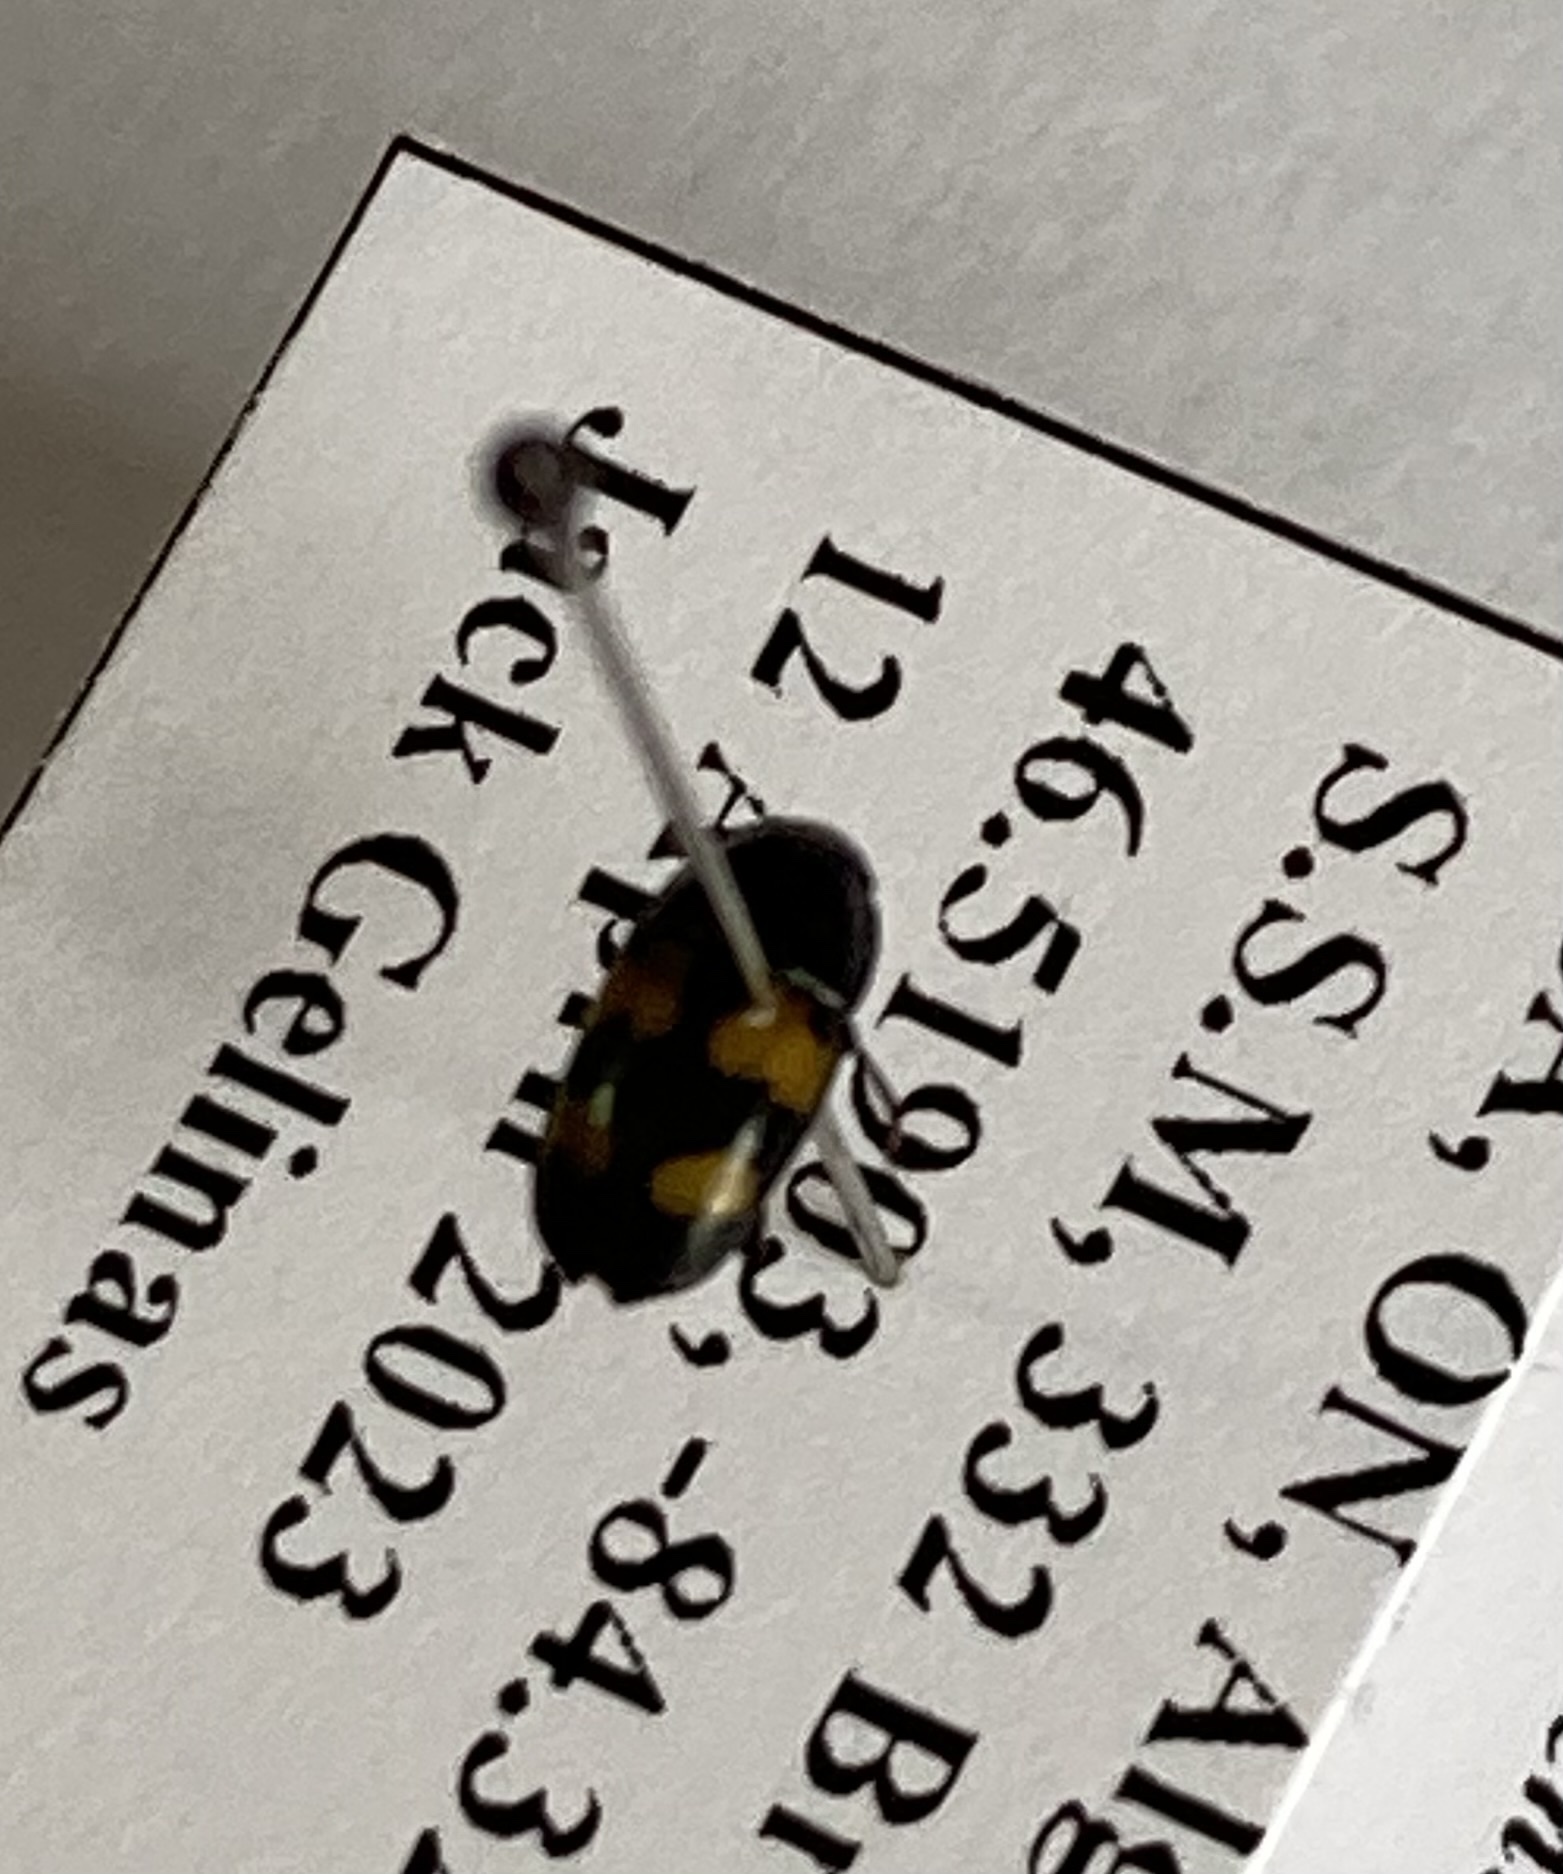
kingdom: Animalia
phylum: Arthropoda
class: Insecta
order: Coleoptera
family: Nitidulidae
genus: Glischrochilus
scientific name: Glischrochilus fasciatus
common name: Picnic beetle
